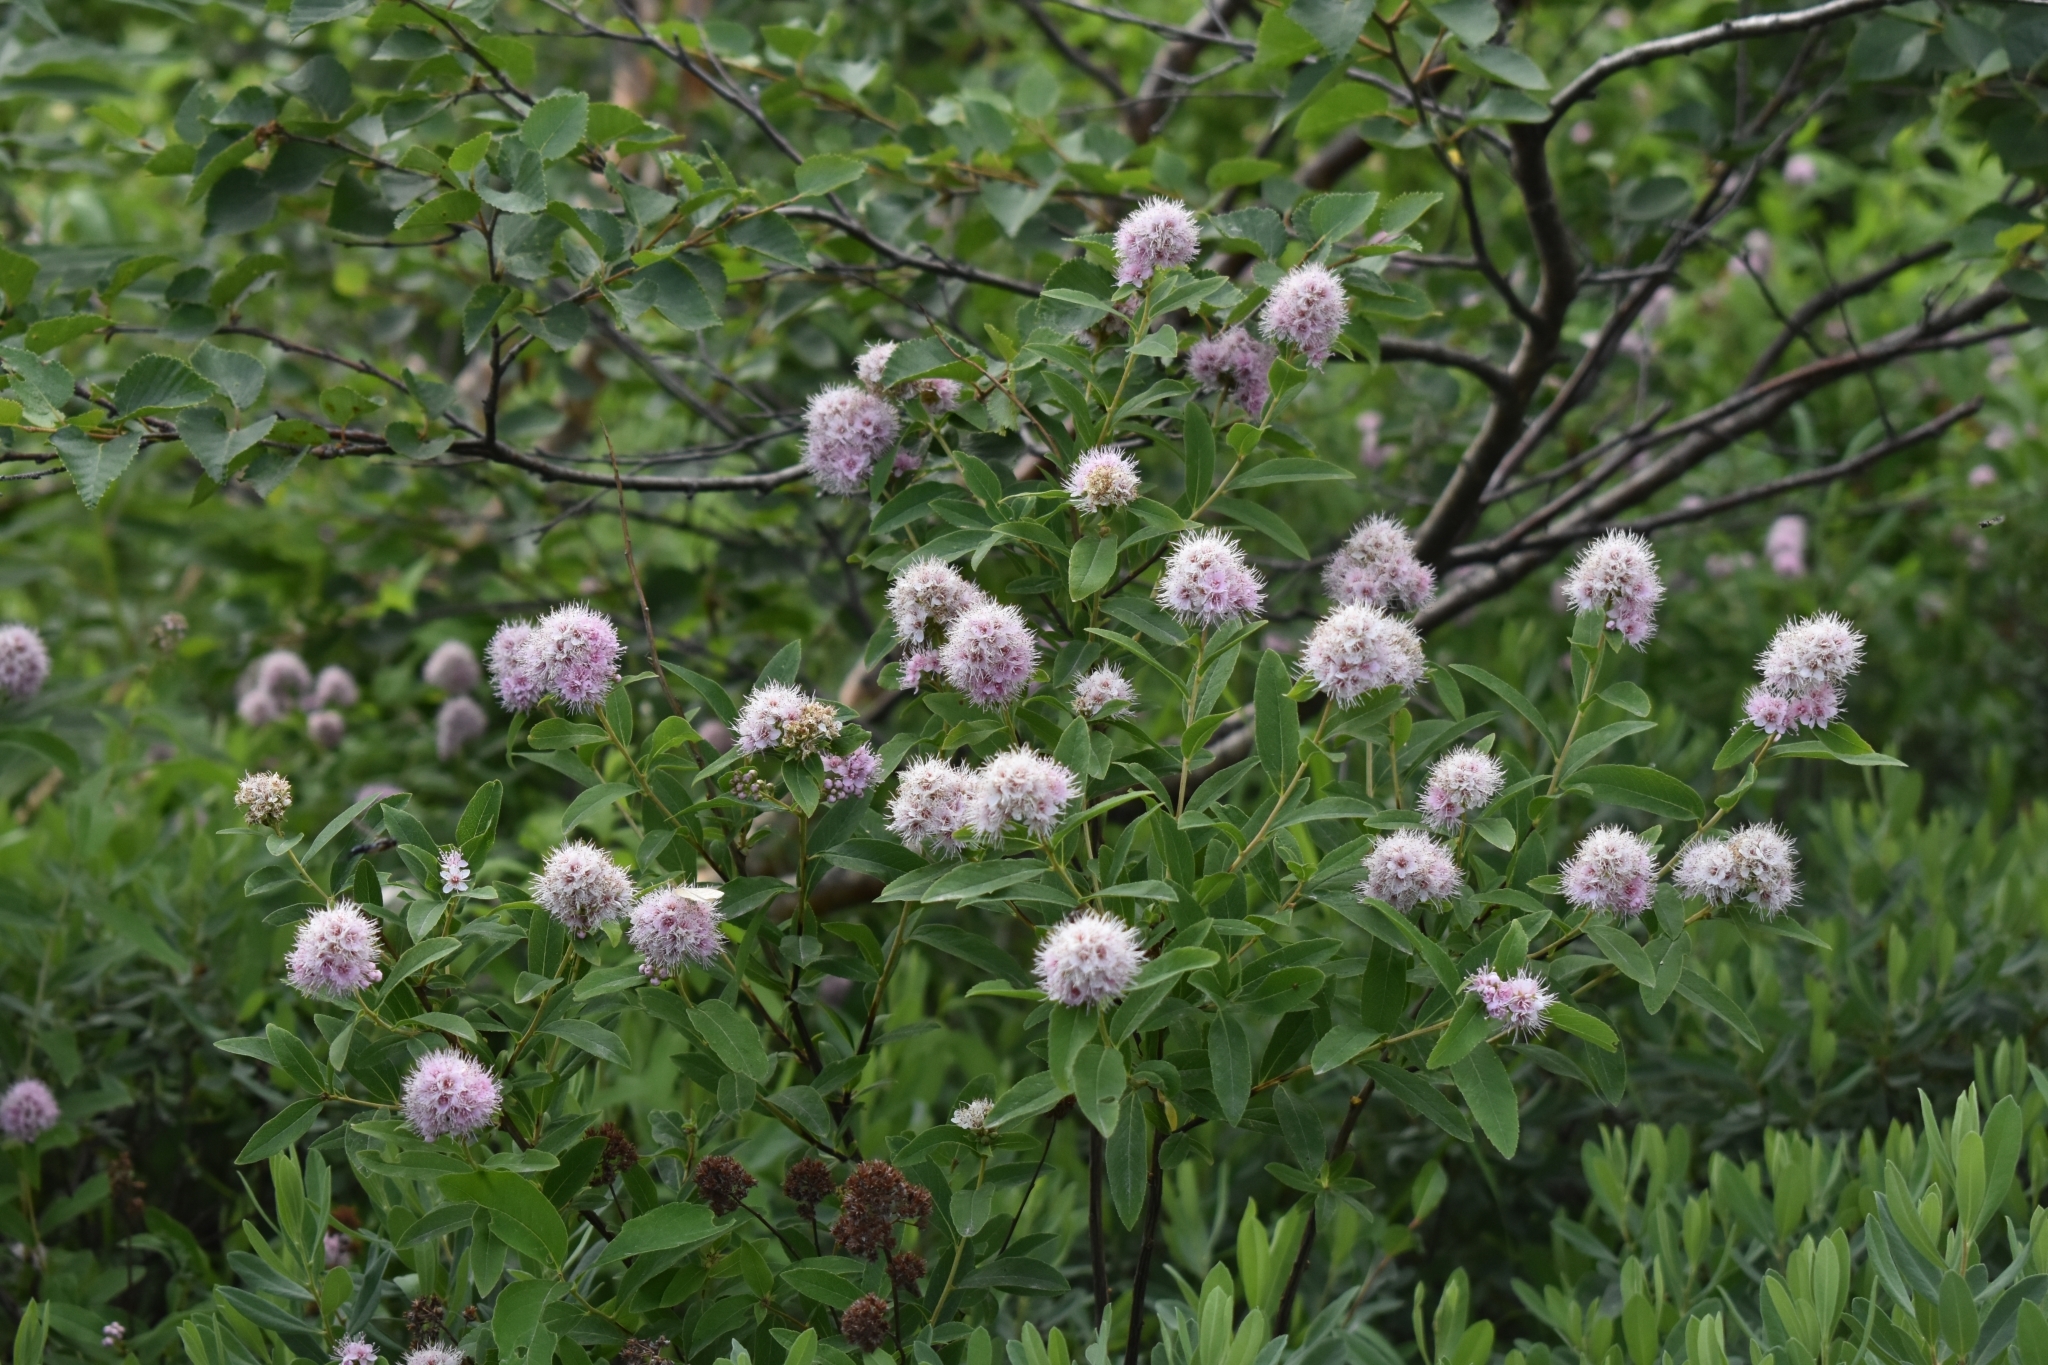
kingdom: Plantae
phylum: Tracheophyta
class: Magnoliopsida
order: Rosales
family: Rosaceae
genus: Spiraea
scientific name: Spiraea salicifolia
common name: Bridewort
